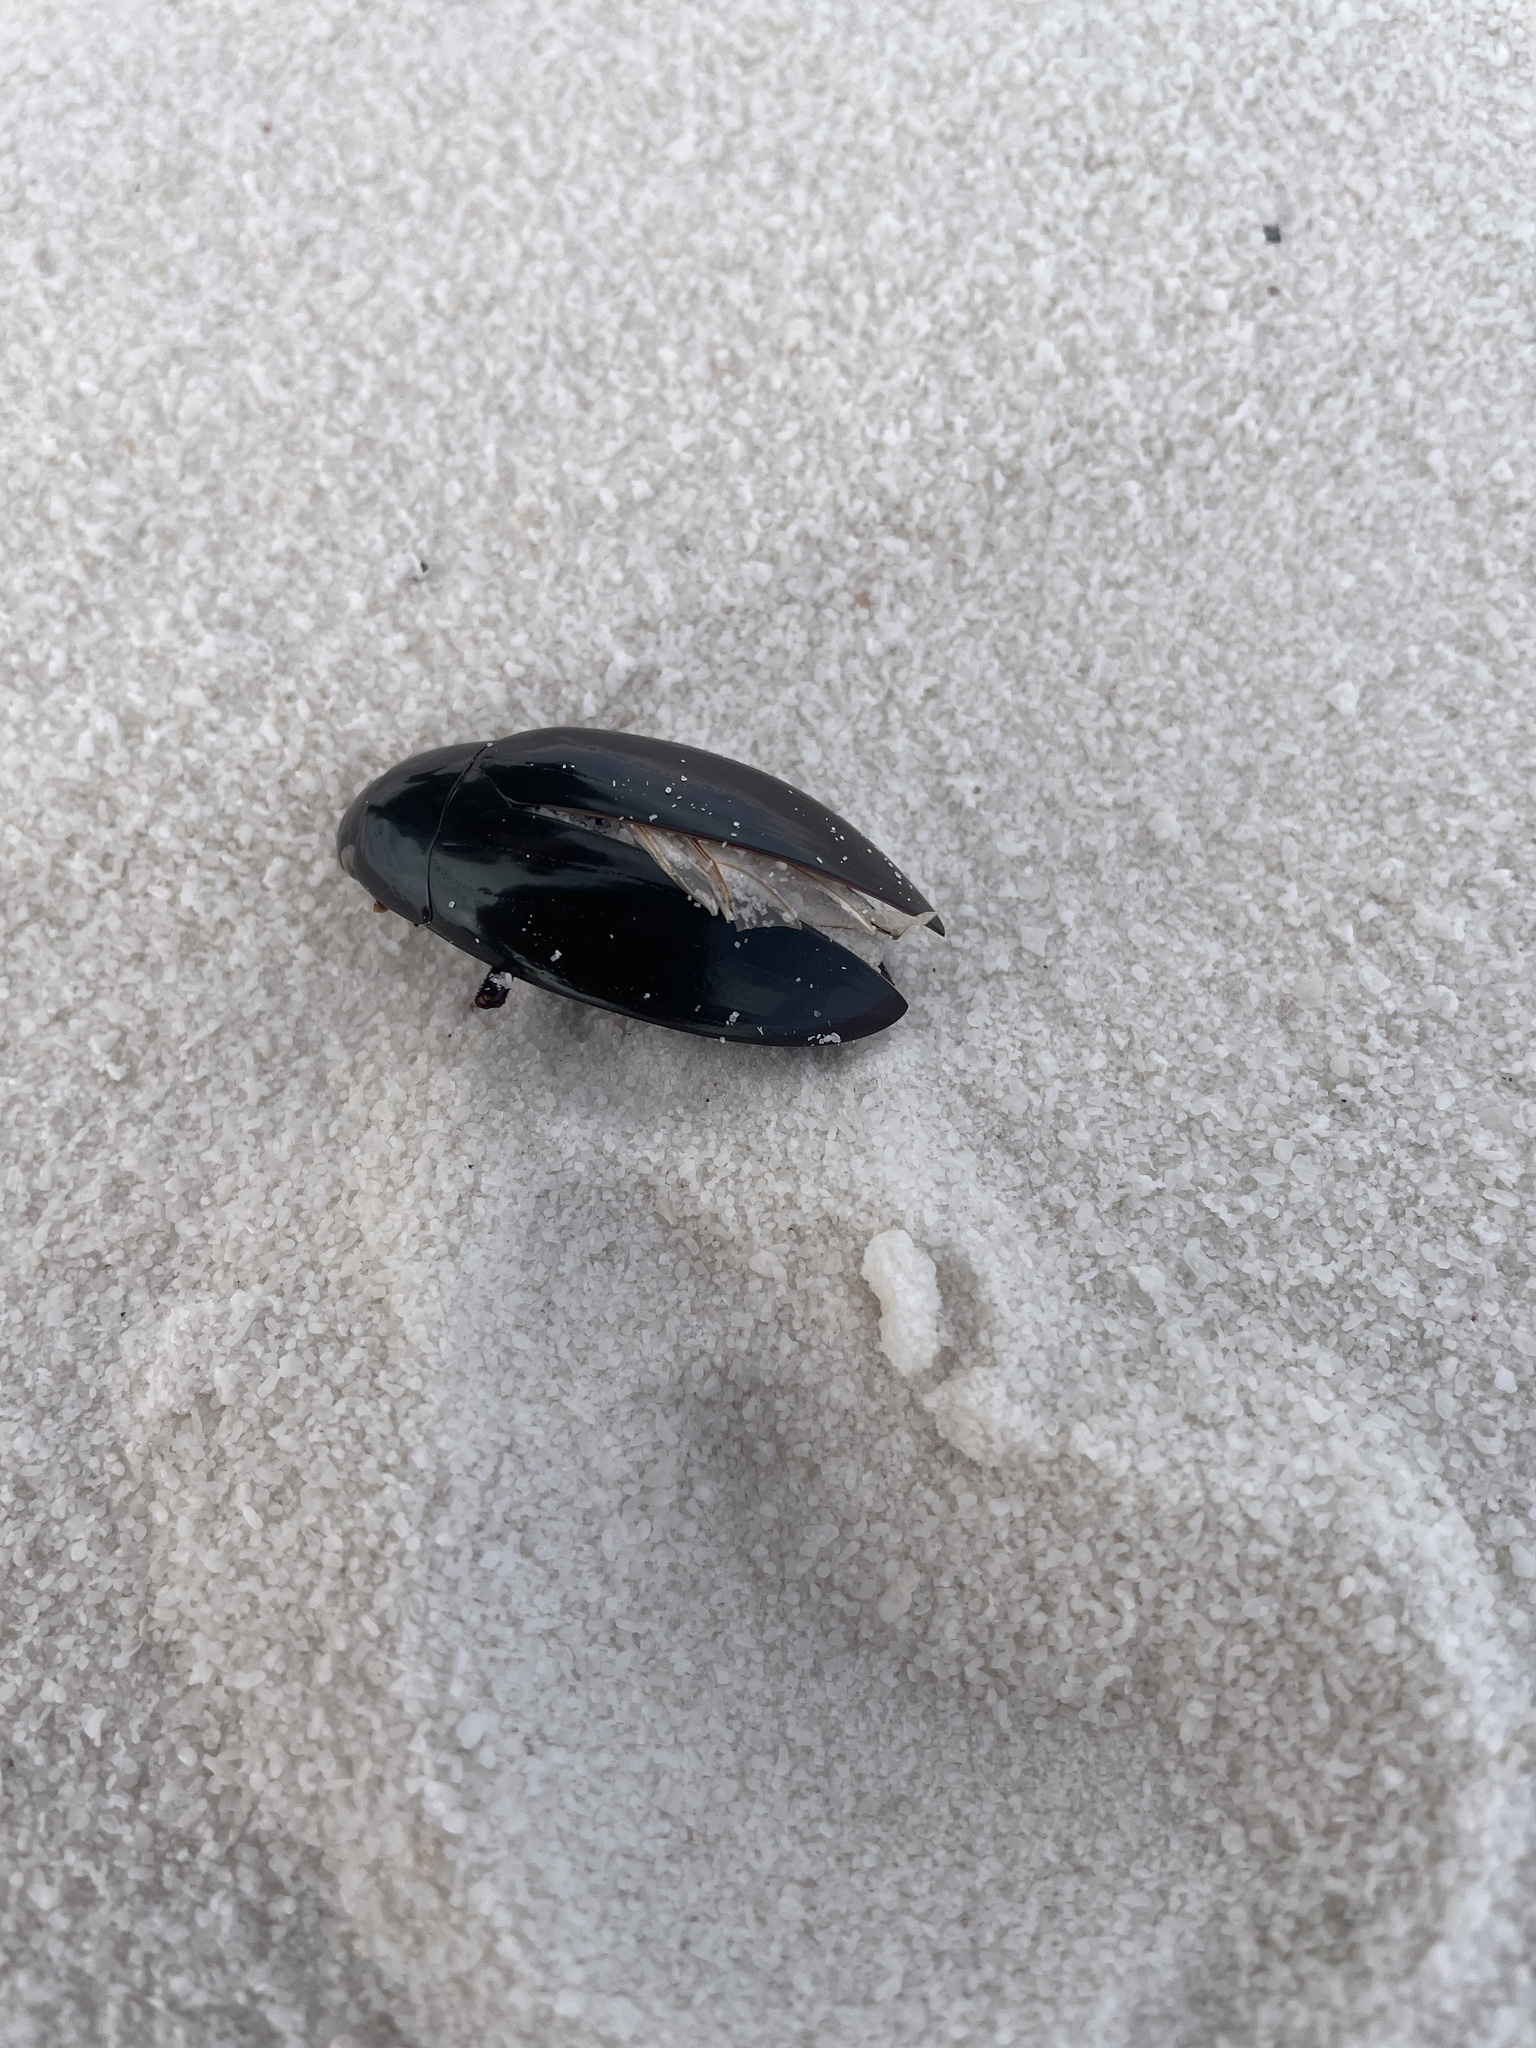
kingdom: Animalia
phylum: Arthropoda
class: Insecta
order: Coleoptera
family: Hydrophilidae
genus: Hydrophilus
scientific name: Hydrophilus triangularis
